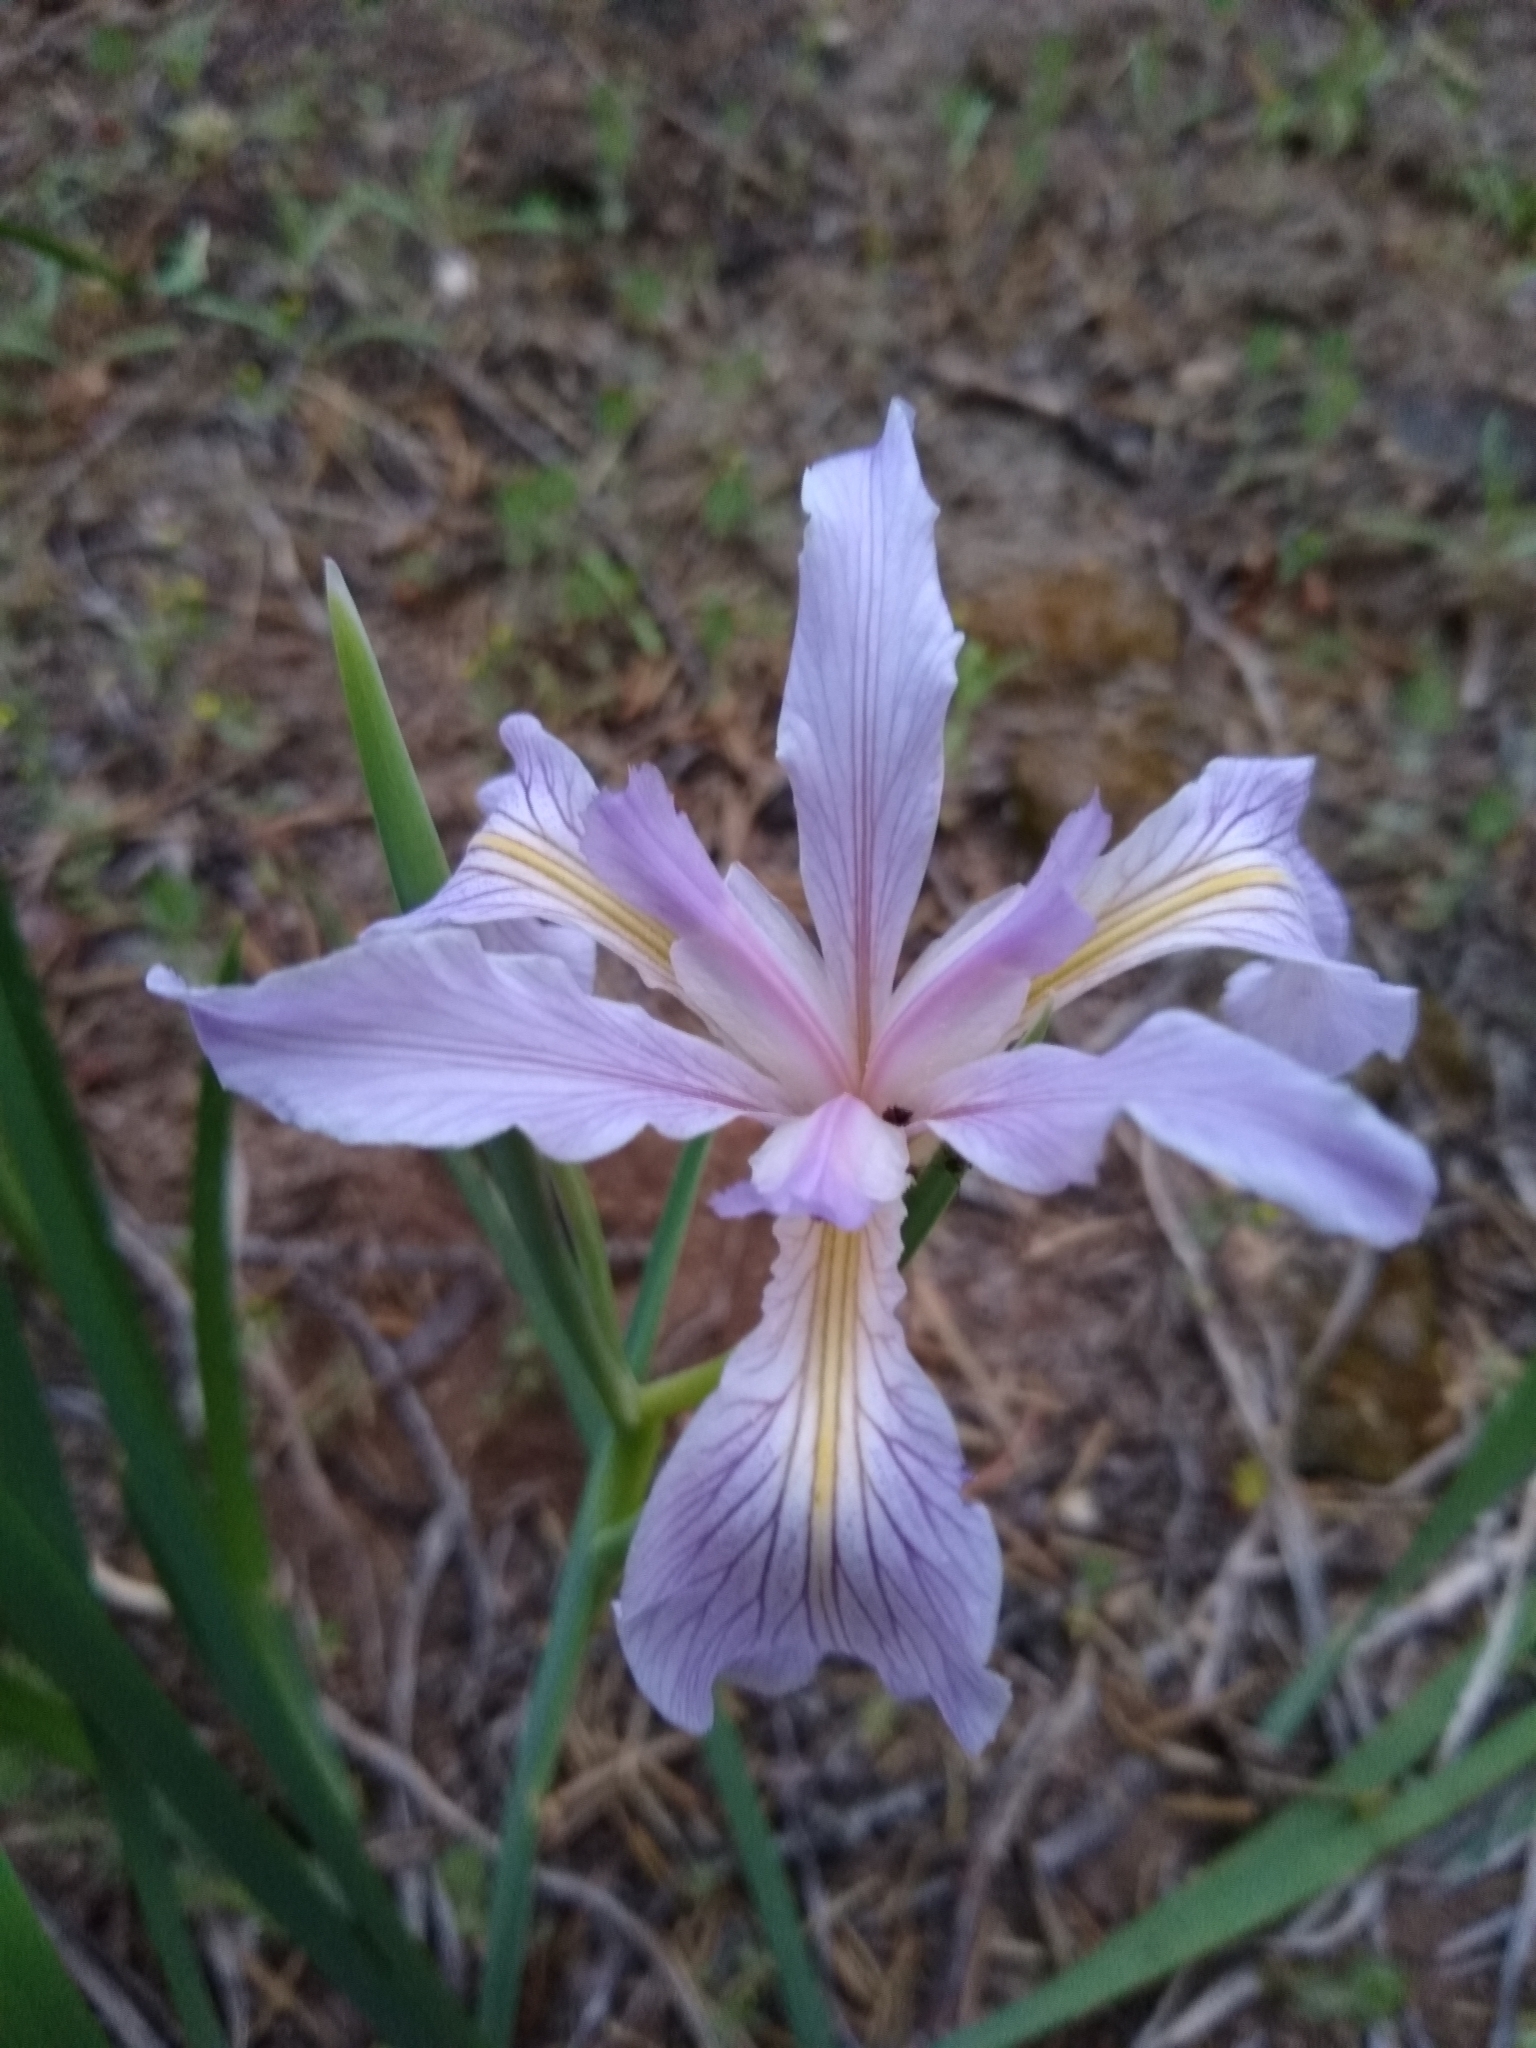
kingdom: Plantae
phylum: Tracheophyta
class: Liliopsida
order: Asparagales
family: Iridaceae
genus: Iris
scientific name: Iris hartwegii
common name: Sierra iris
